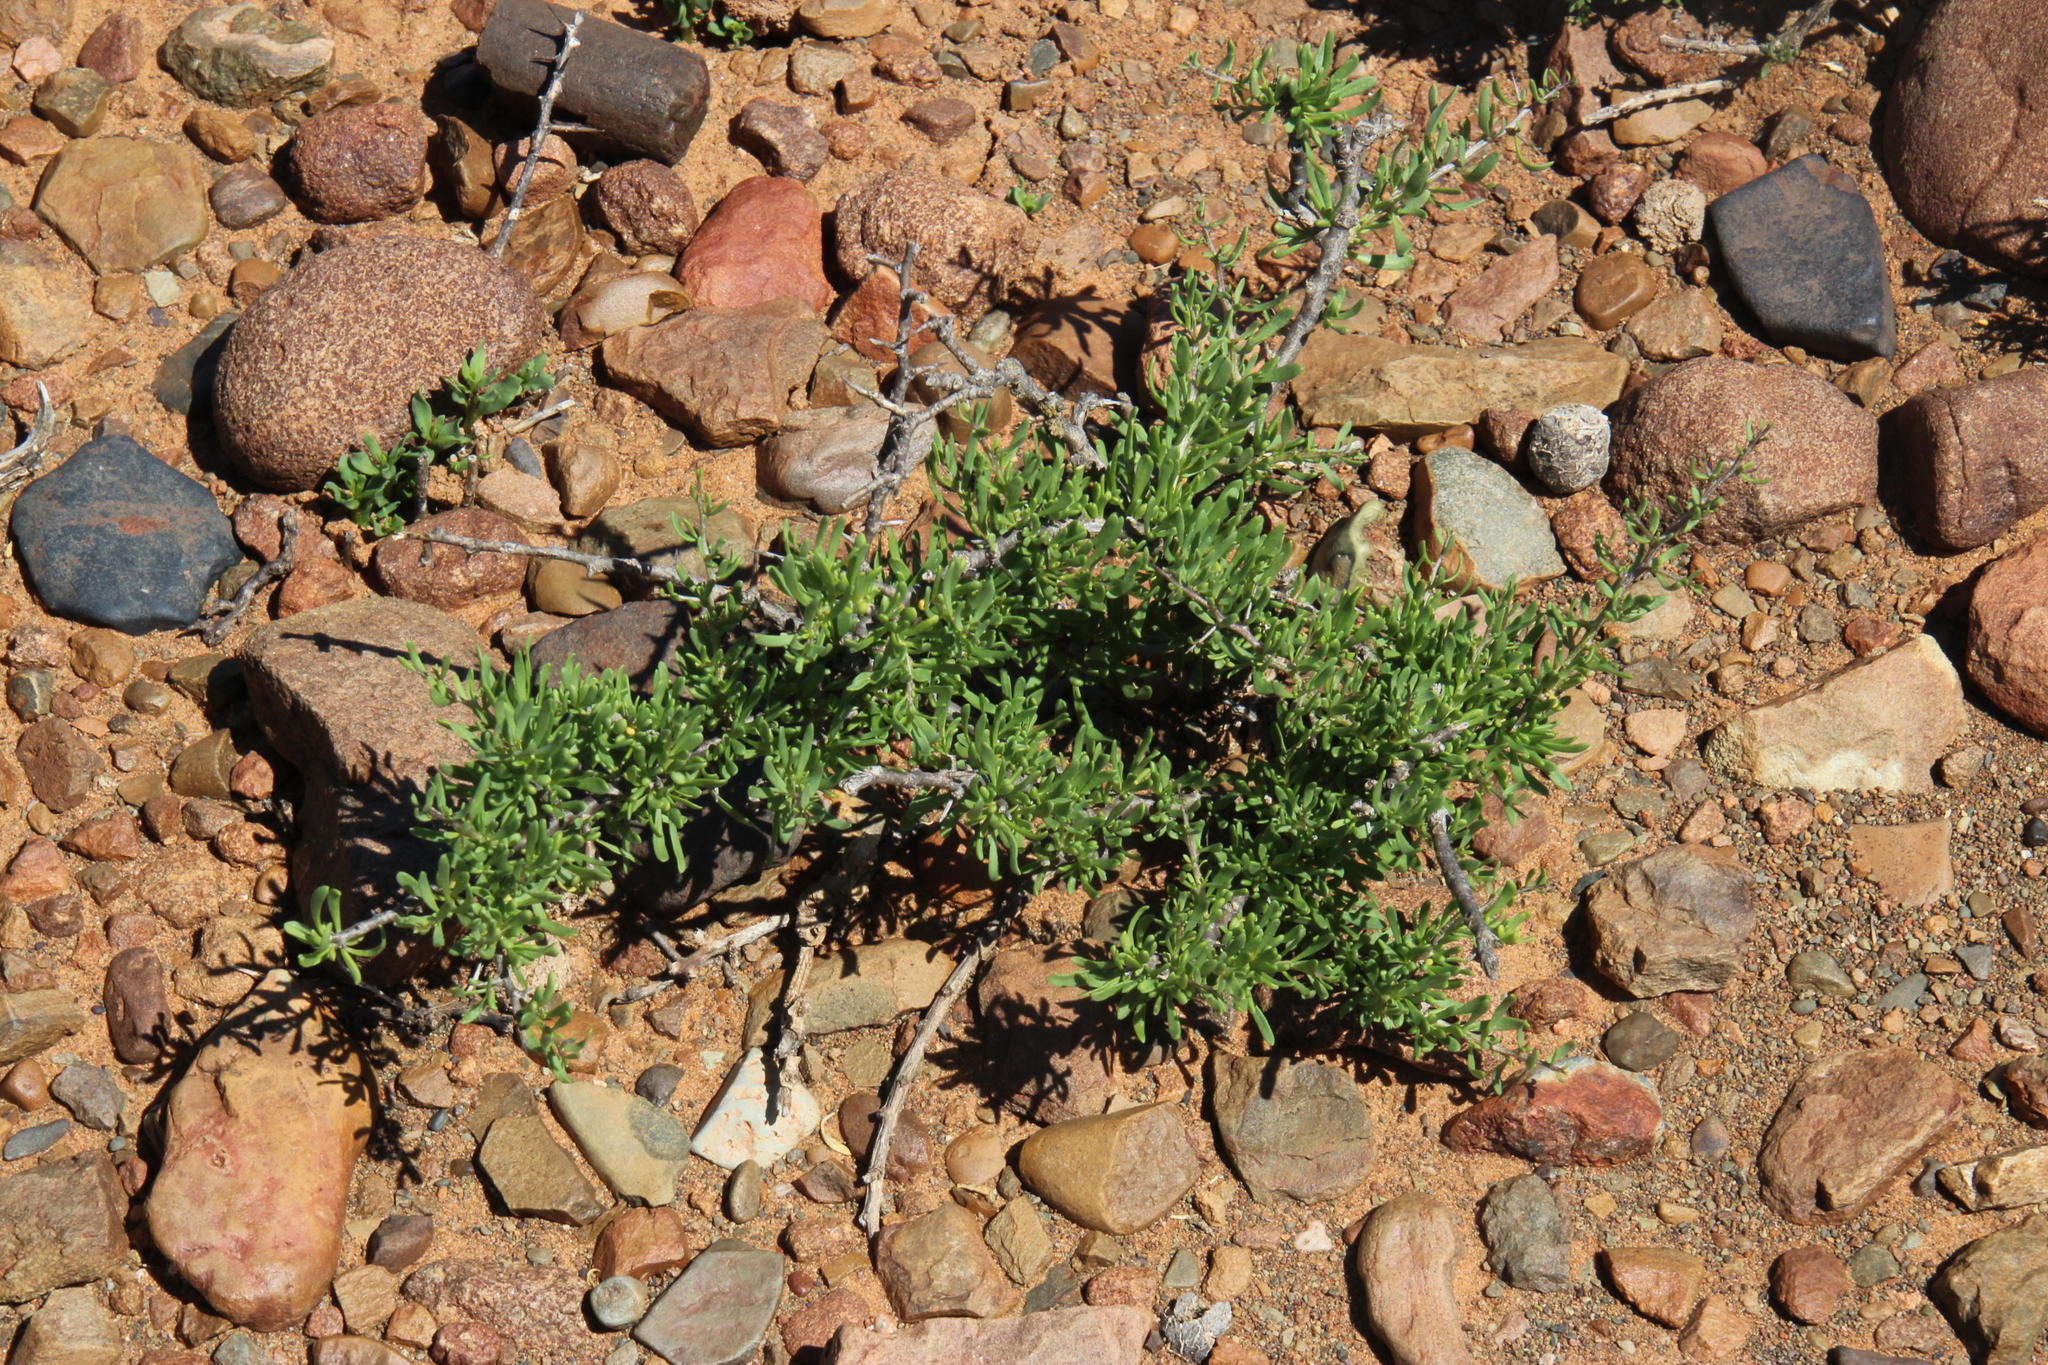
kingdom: Plantae
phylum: Tracheophyta
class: Magnoliopsida
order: Solanales
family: Solanaceae
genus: Lycium
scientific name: Lycium schizocalyx
